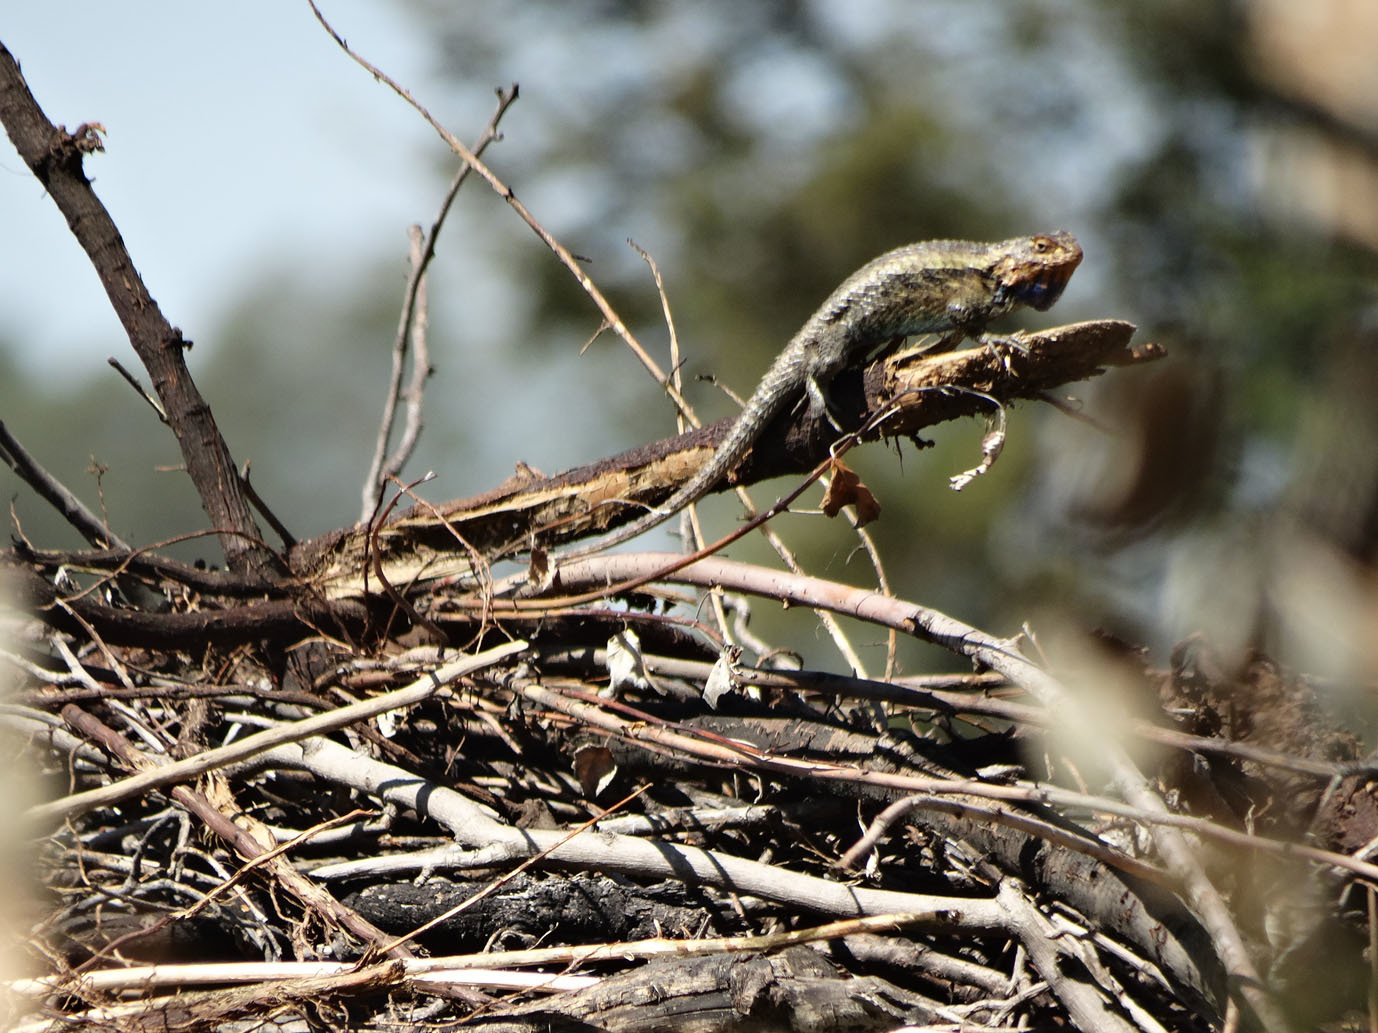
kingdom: Animalia
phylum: Chordata
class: Squamata
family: Phrynosomatidae
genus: Sceloporus
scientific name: Sceloporus spinosus
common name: Blue-spotted spiny lizard [caeruleopunctatus]
